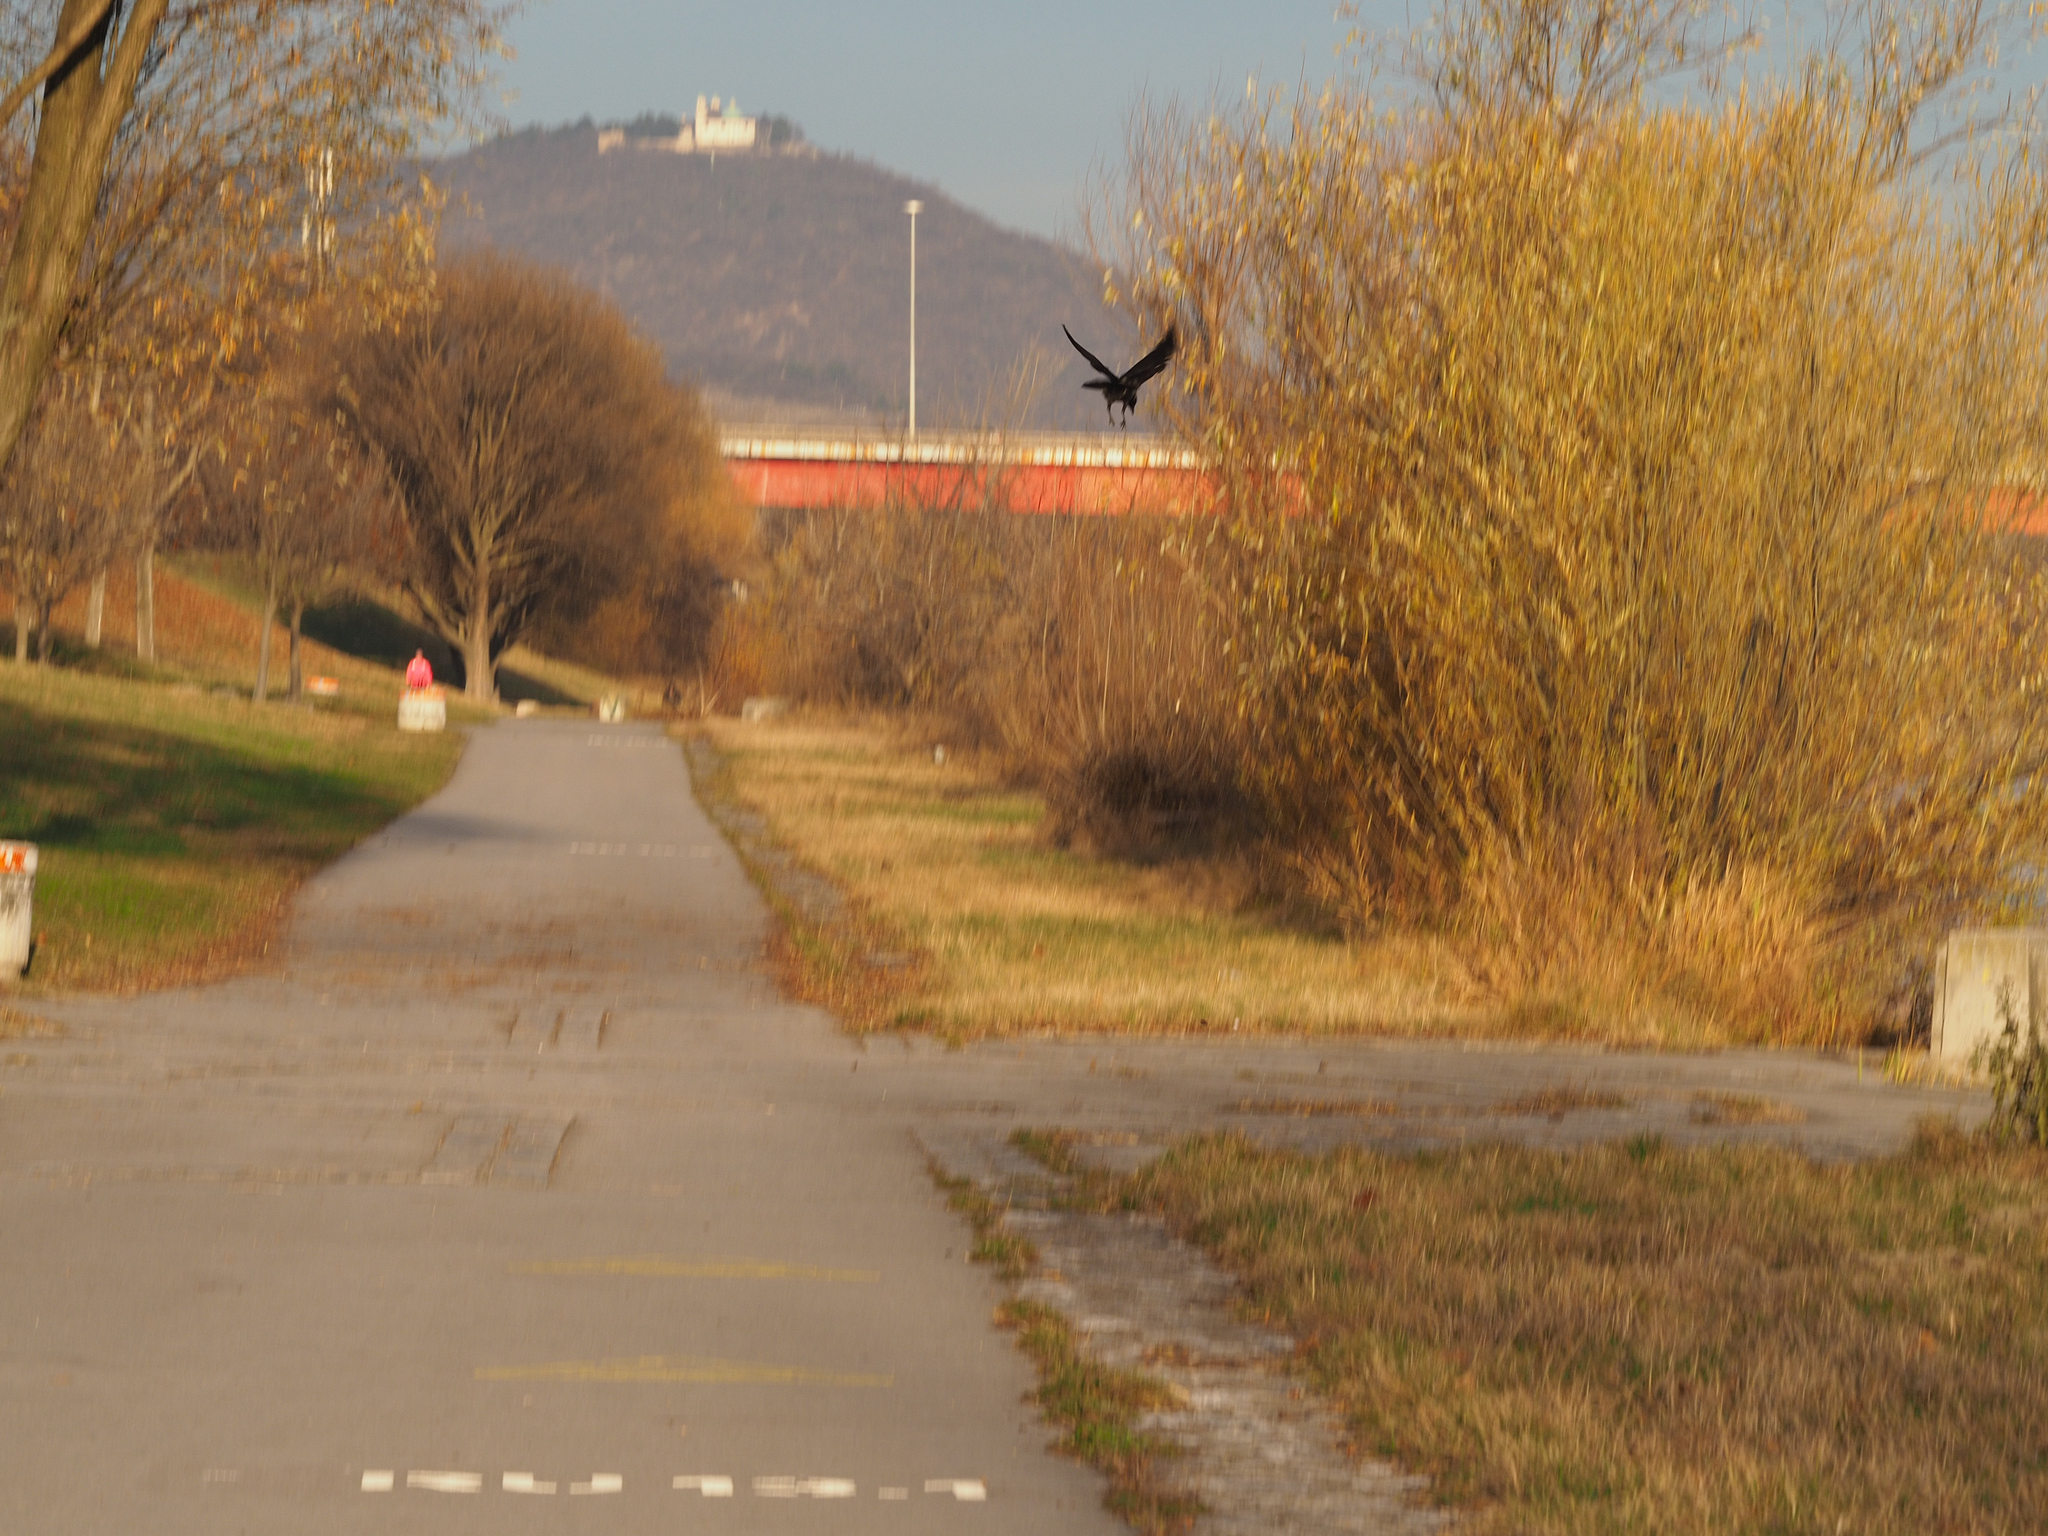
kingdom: Animalia
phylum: Chordata
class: Aves
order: Passeriformes
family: Corvidae
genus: Corvus
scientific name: Corvus
